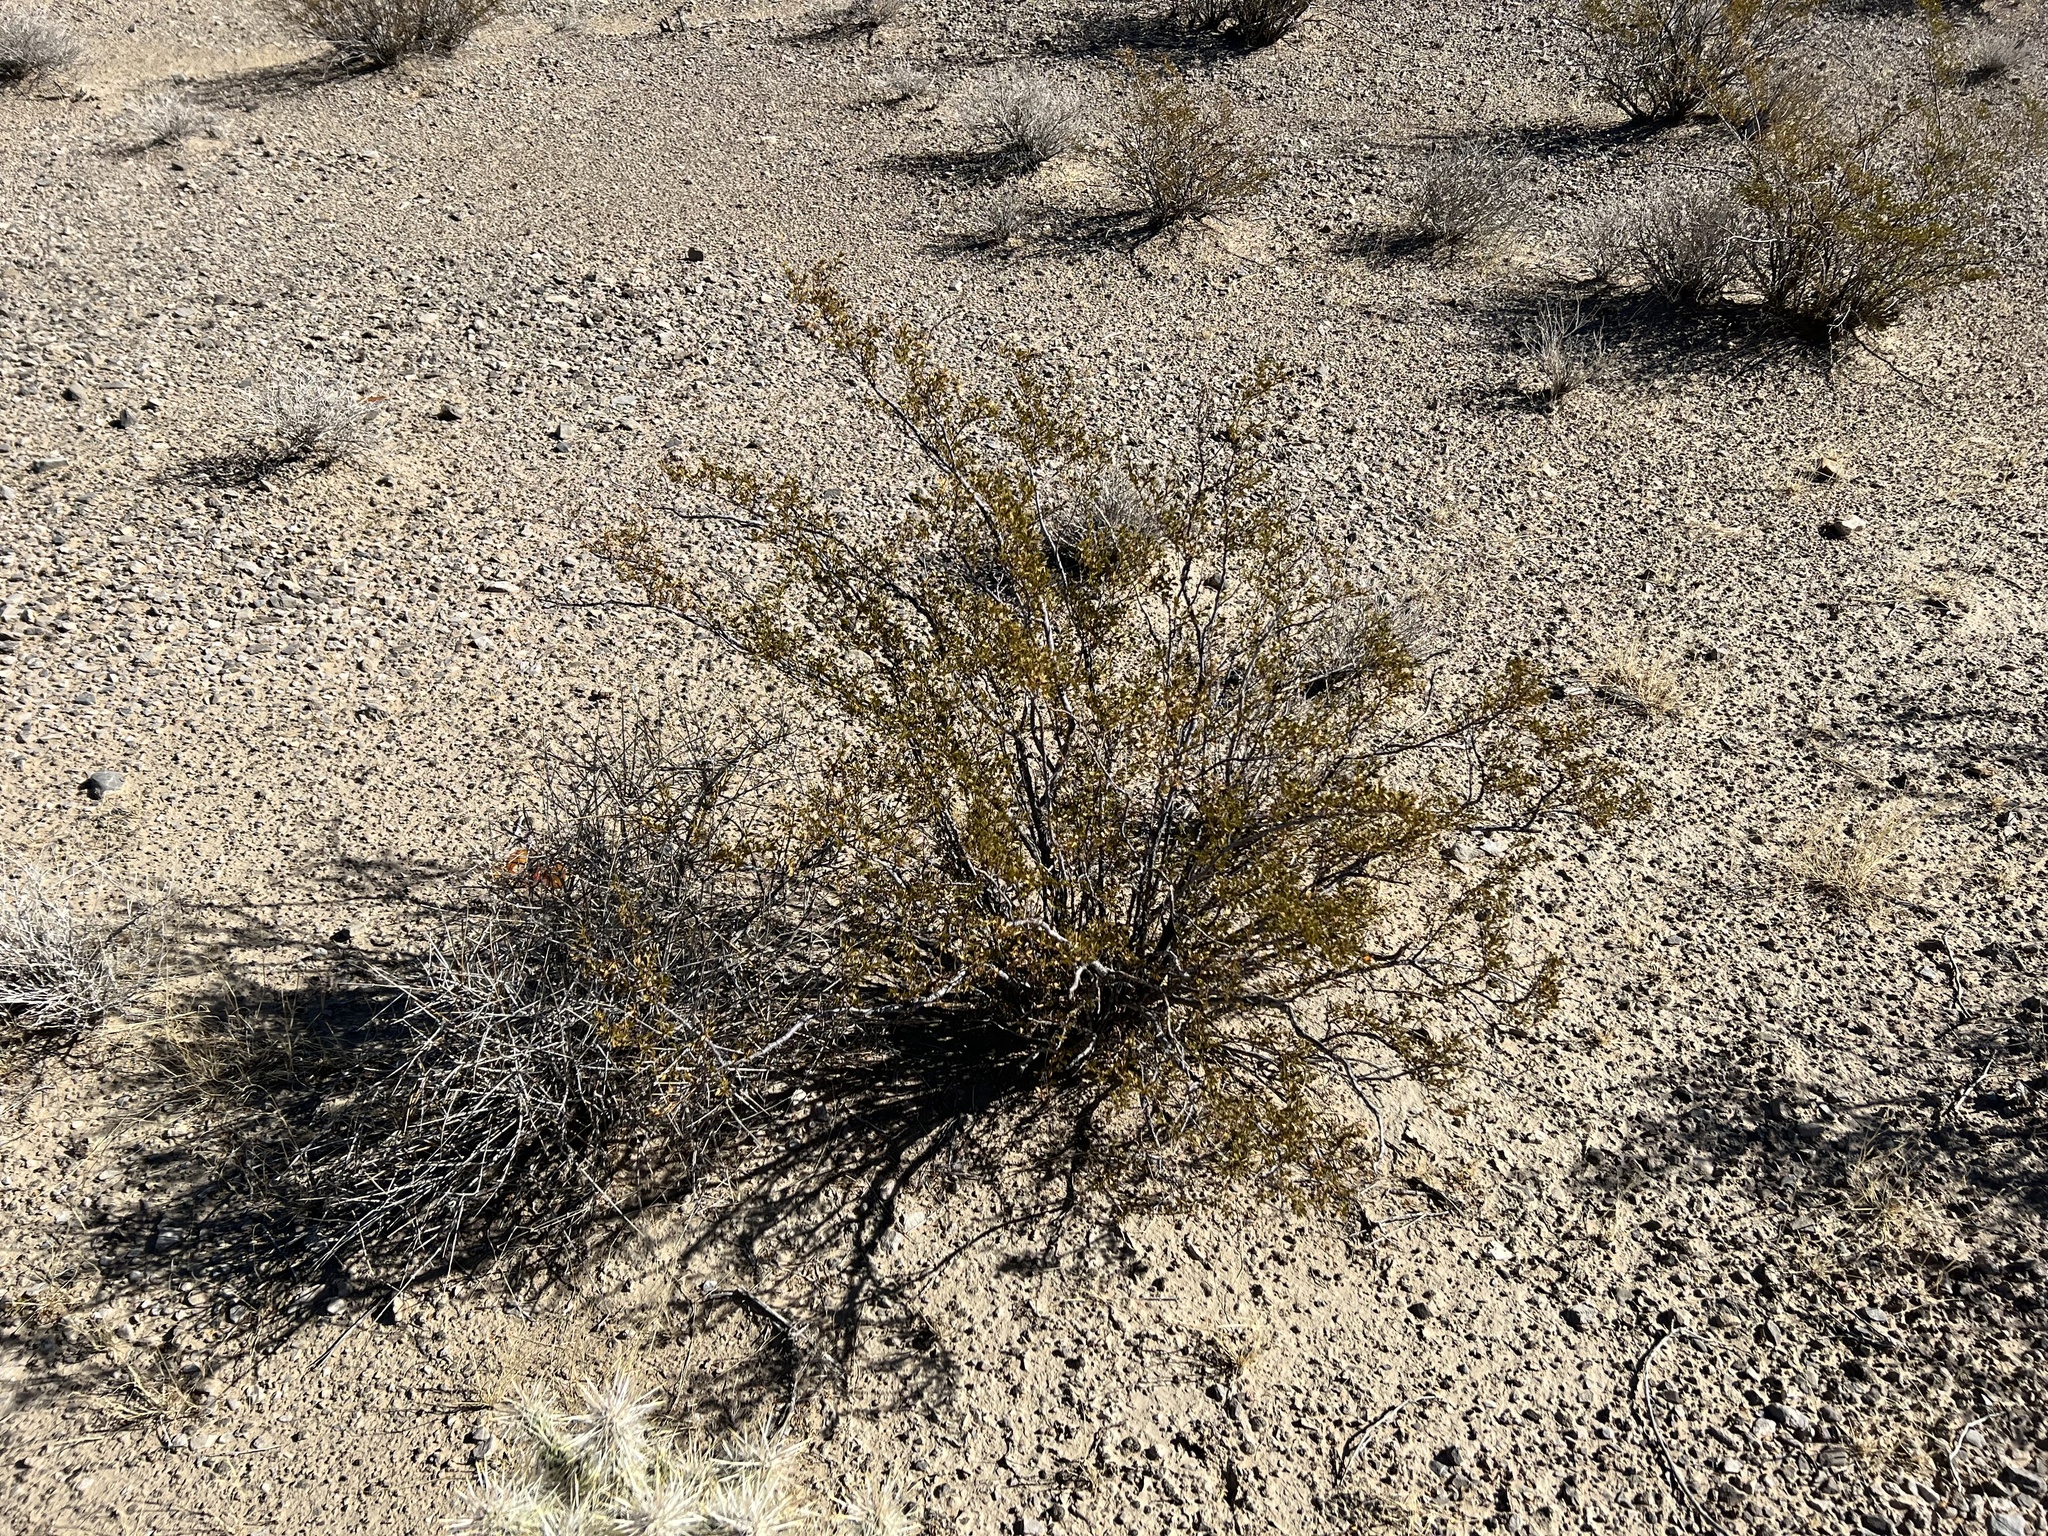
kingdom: Plantae
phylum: Tracheophyta
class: Magnoliopsida
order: Zygophyllales
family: Zygophyllaceae
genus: Larrea
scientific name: Larrea tridentata
